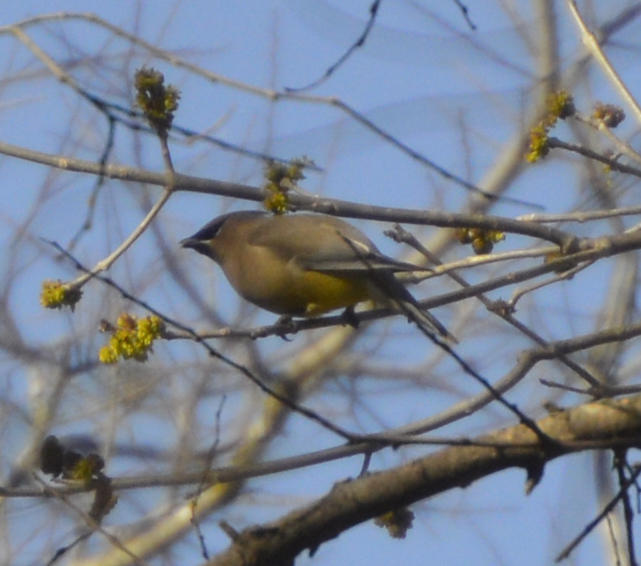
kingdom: Animalia
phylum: Chordata
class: Aves
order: Passeriformes
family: Bombycillidae
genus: Bombycilla
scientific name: Bombycilla cedrorum
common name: Cedar waxwing
